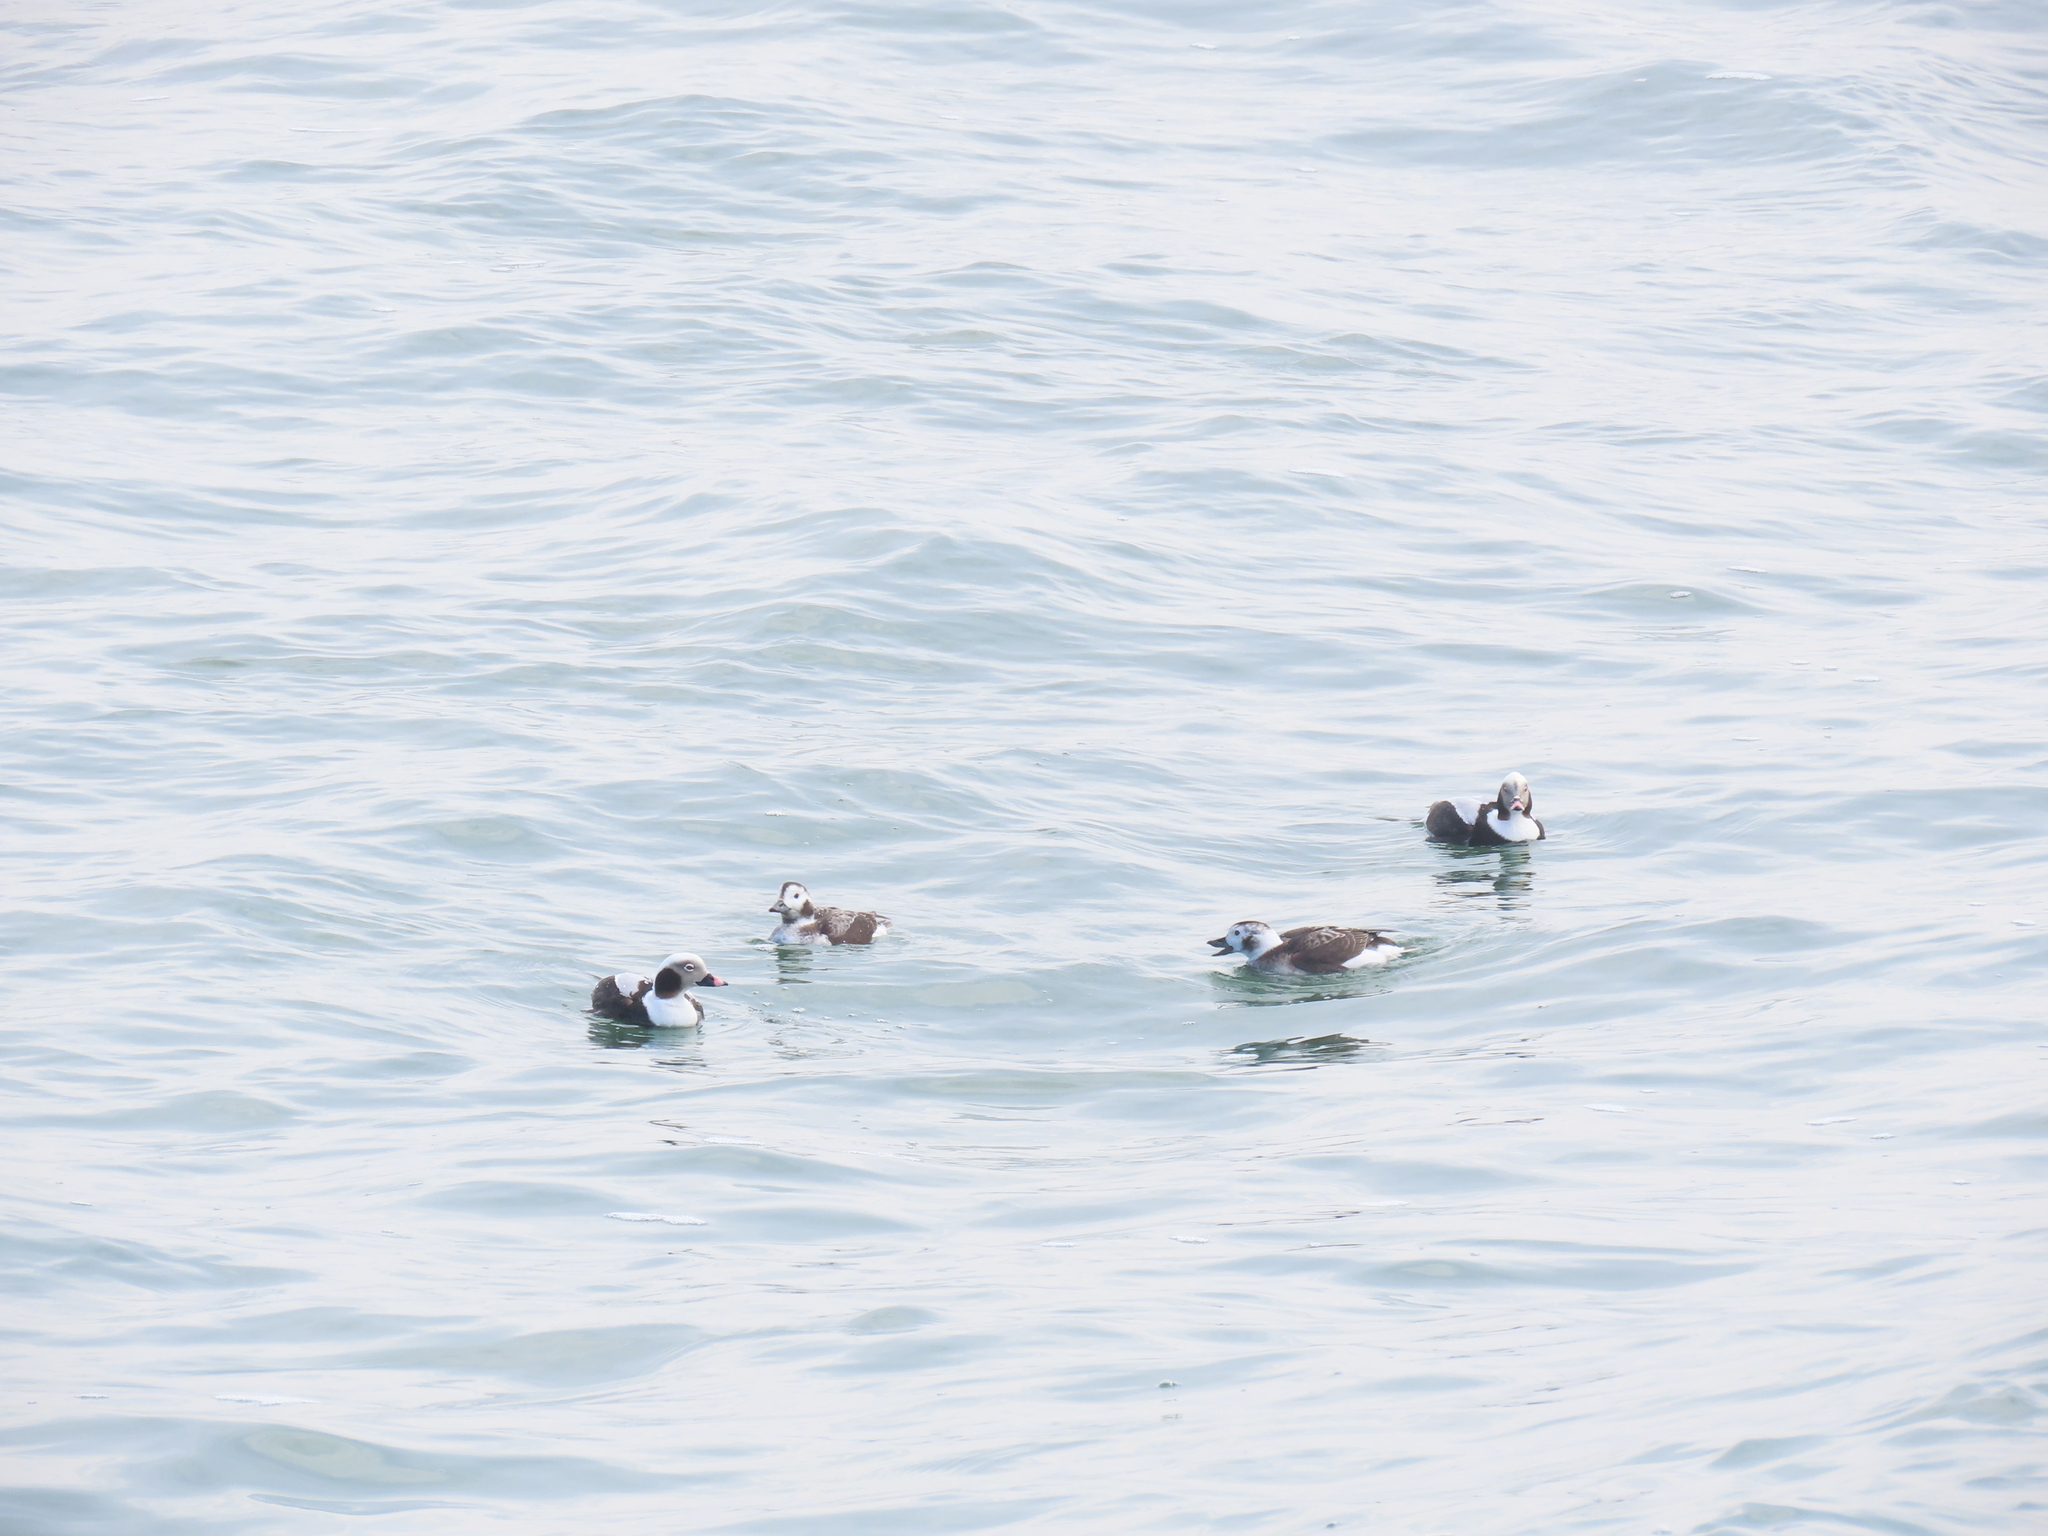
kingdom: Animalia
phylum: Chordata
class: Aves
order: Anseriformes
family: Anatidae
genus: Clangula
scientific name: Clangula hyemalis
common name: Long-tailed duck
